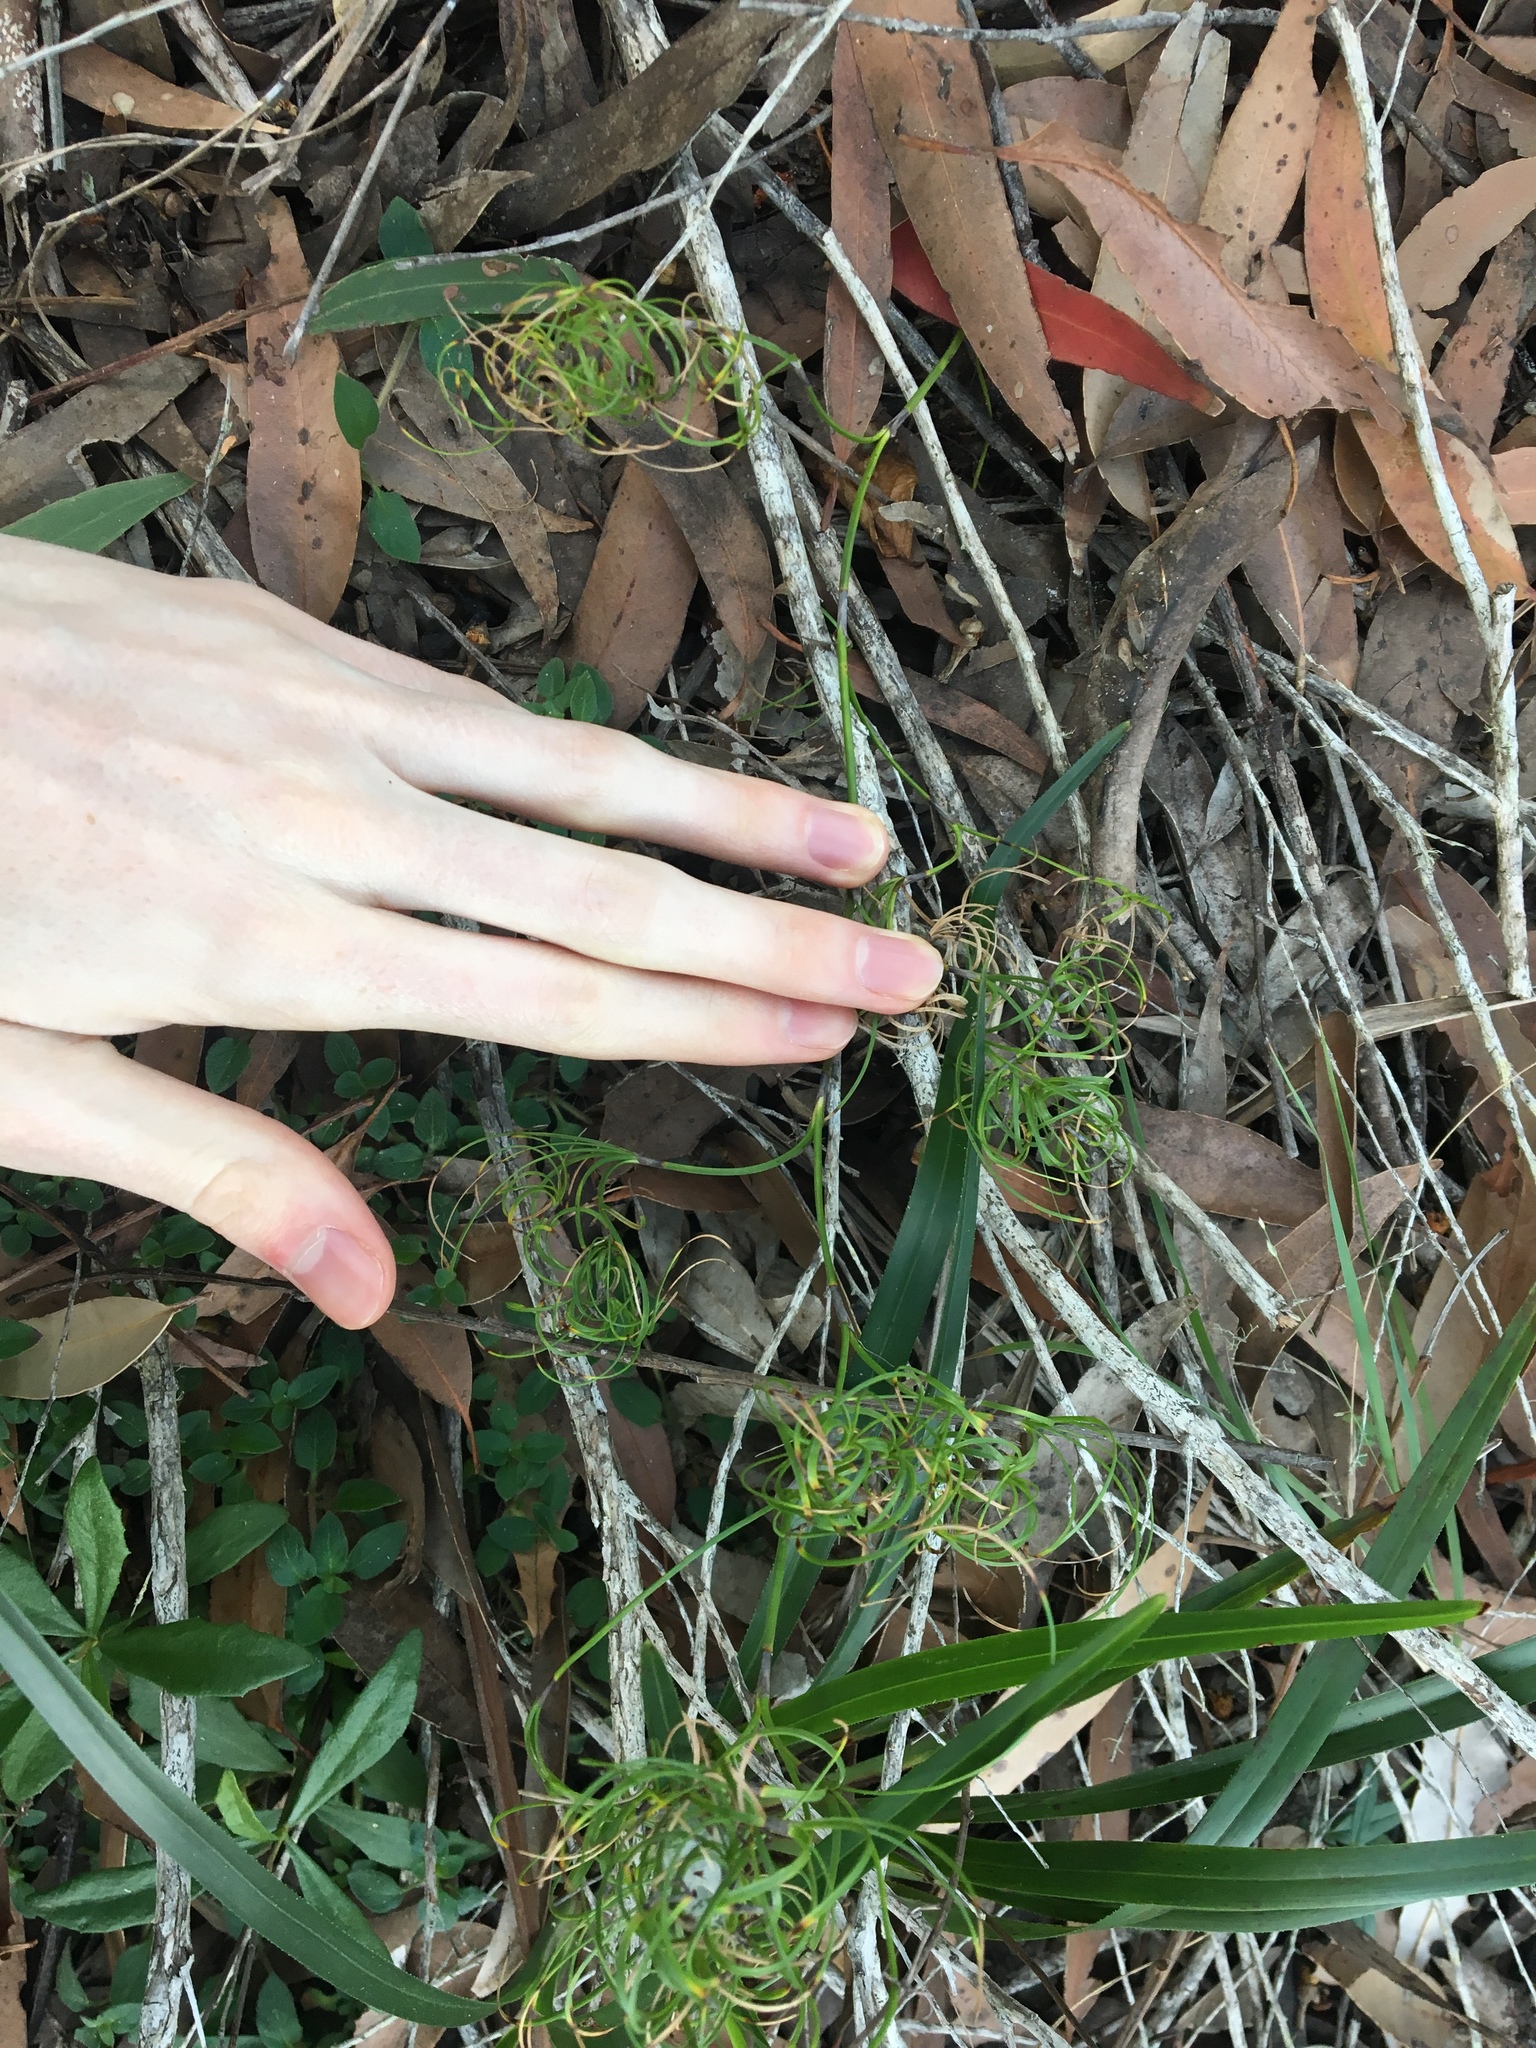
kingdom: Plantae
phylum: Tracheophyta
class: Liliopsida
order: Poales
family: Cyperaceae
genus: Caustis
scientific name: Caustis recurvata
